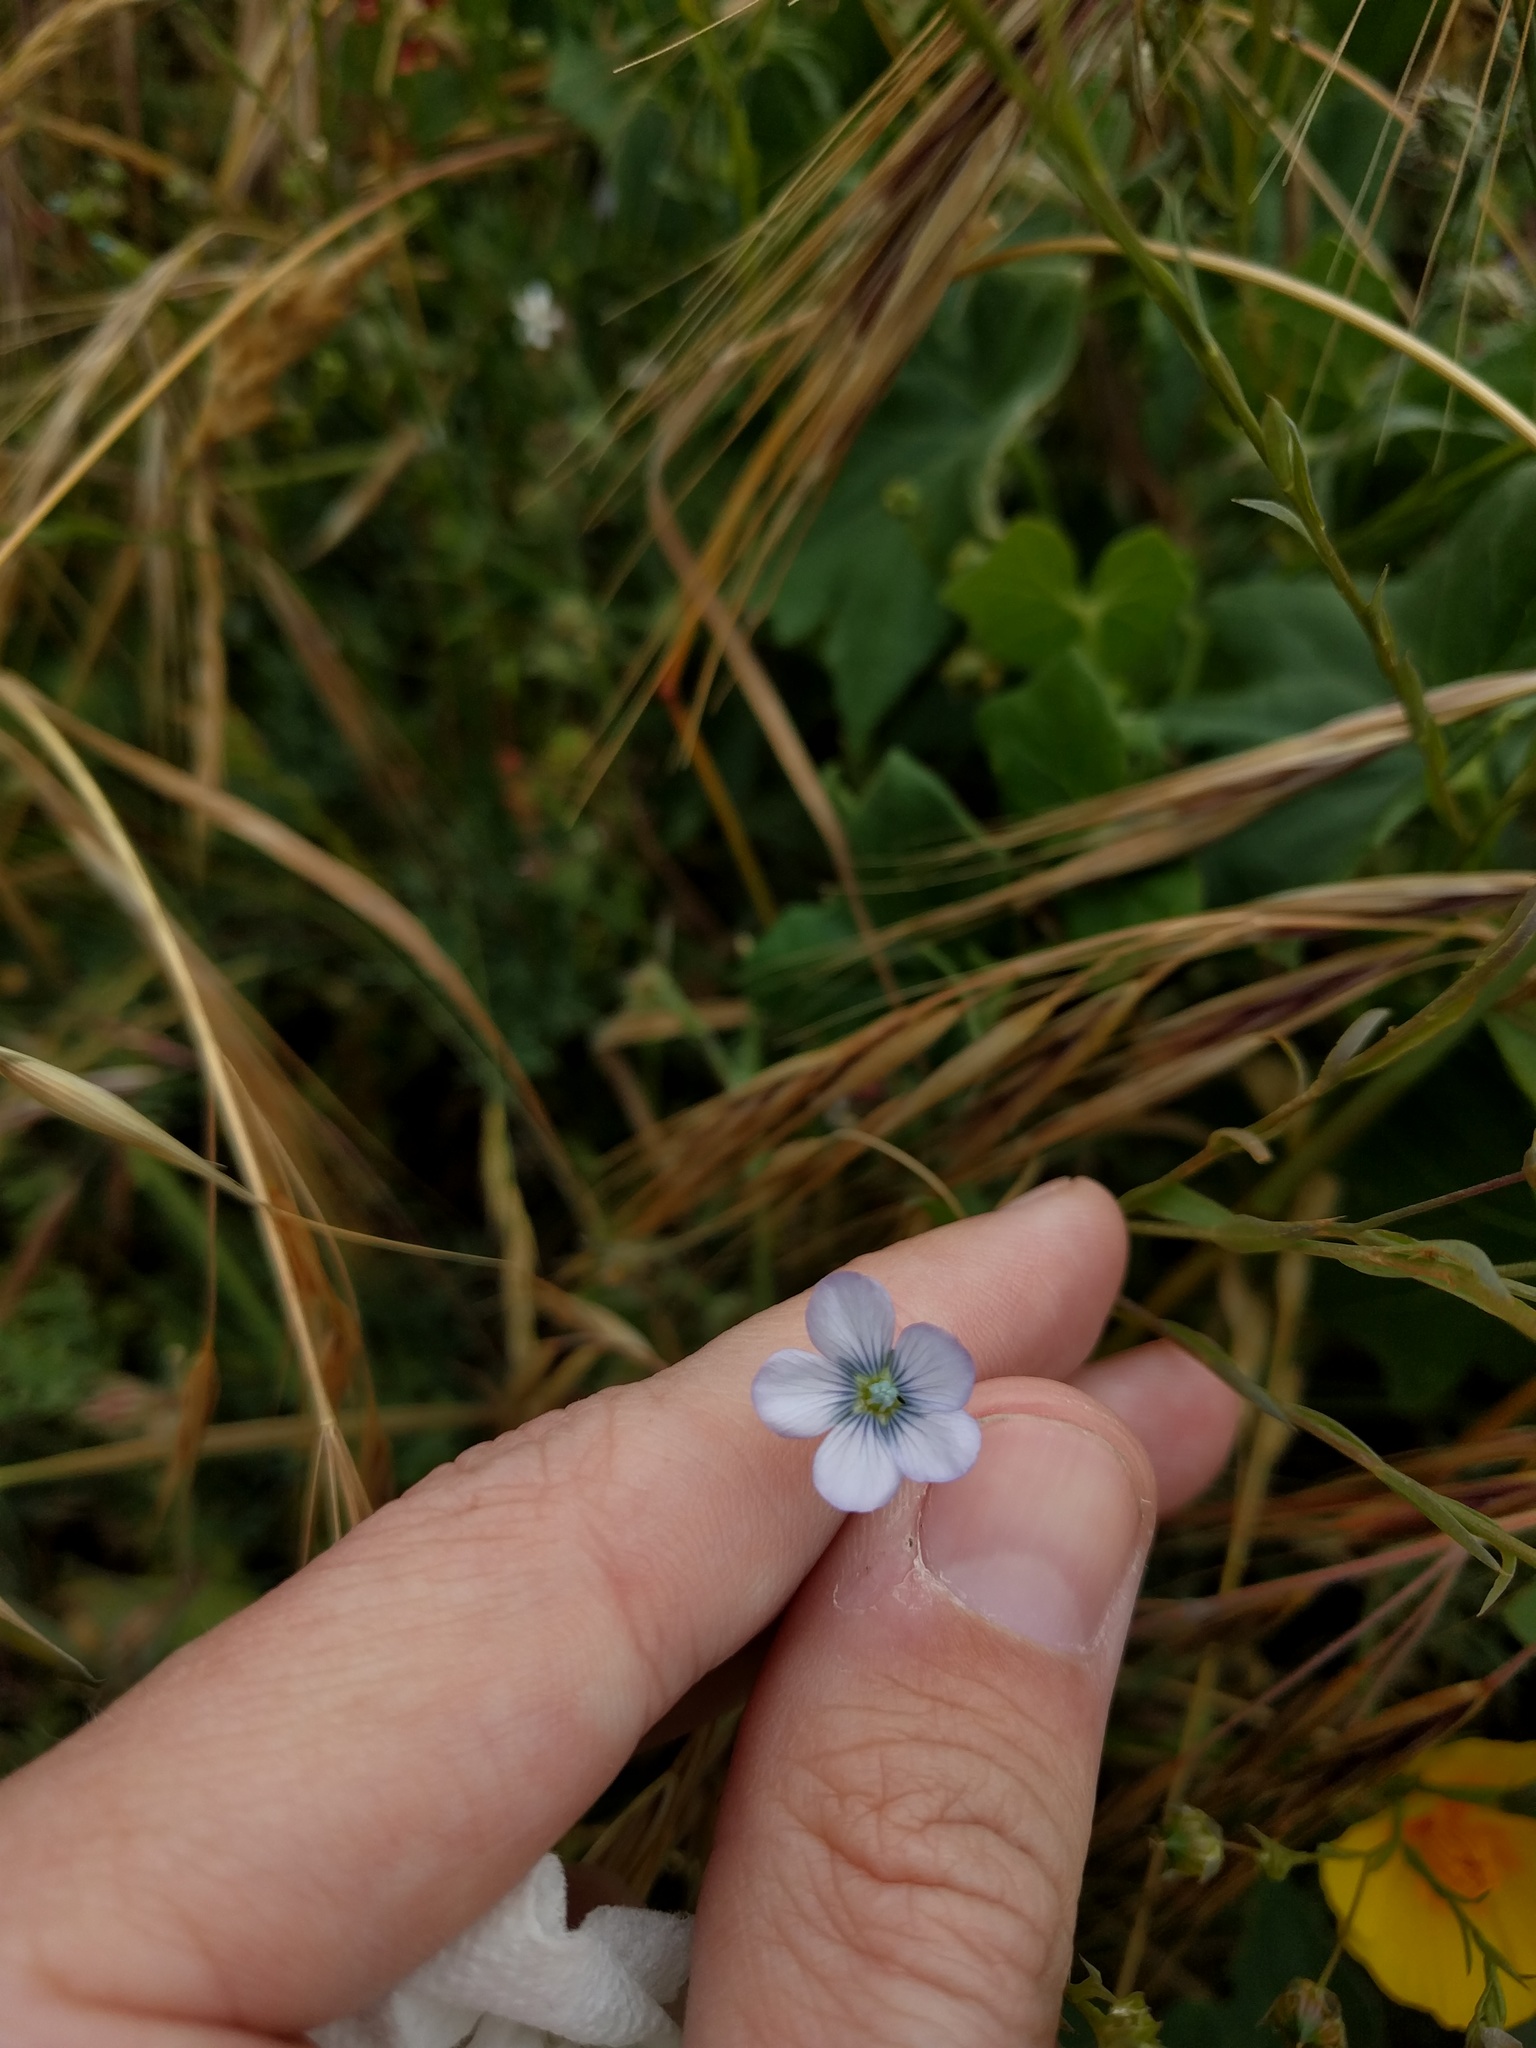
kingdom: Plantae
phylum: Tracheophyta
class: Magnoliopsida
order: Malpighiales
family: Linaceae
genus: Linum
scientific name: Linum bienne
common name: Pale flax
